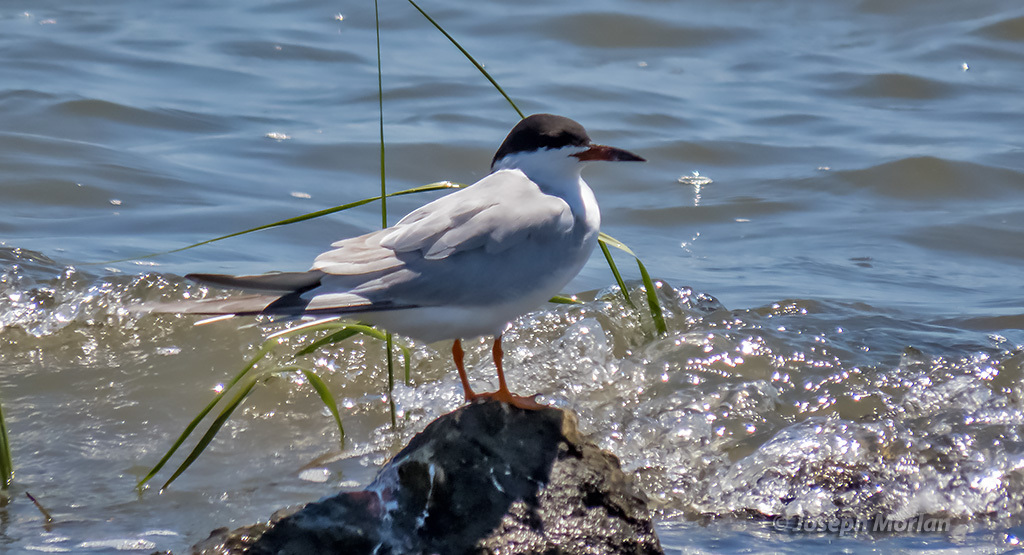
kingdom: Animalia
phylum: Chordata
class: Aves
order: Charadriiformes
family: Laridae
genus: Sterna
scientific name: Sterna forsteri
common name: Forster's tern
